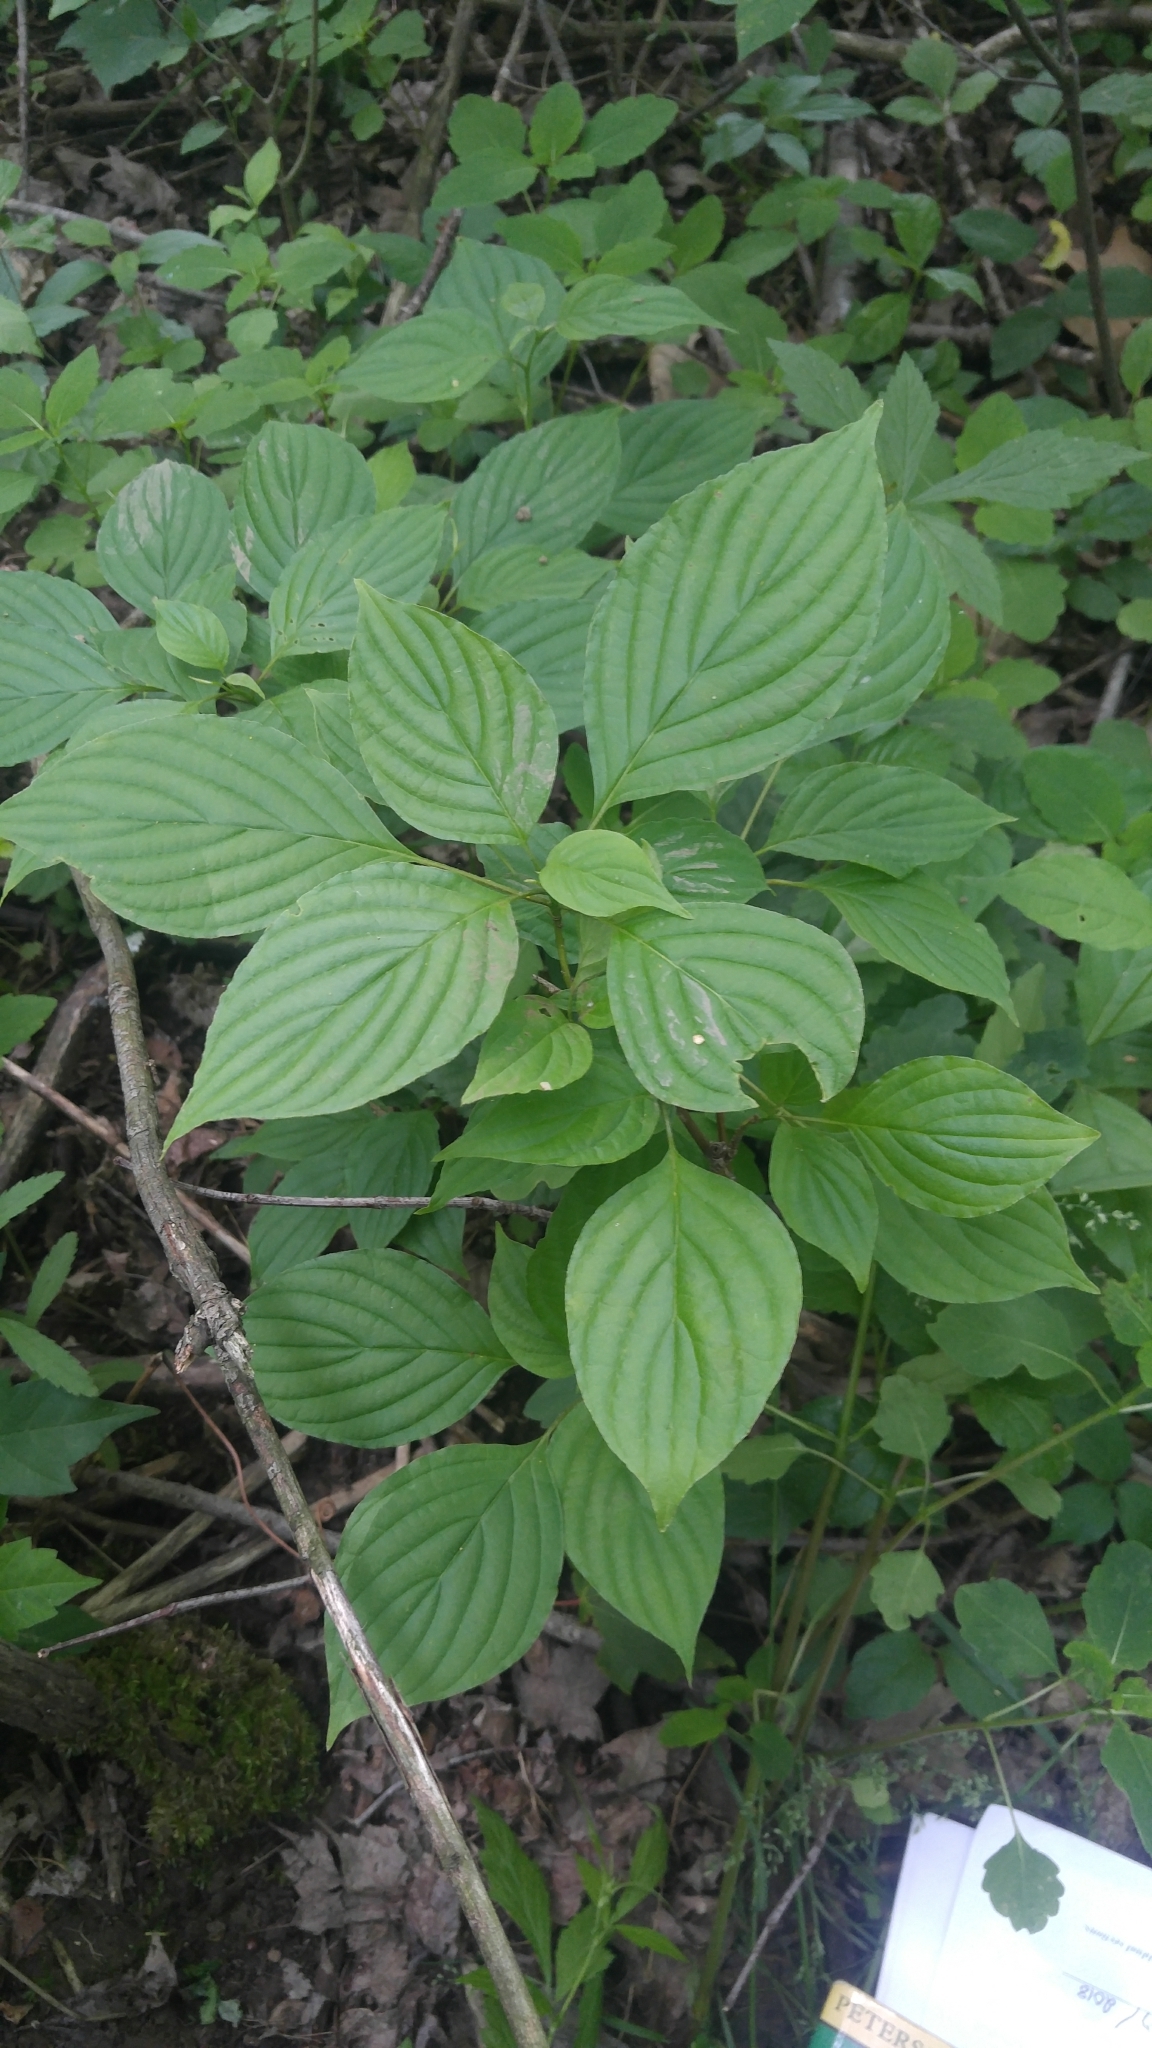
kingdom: Plantae
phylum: Tracheophyta
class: Magnoliopsida
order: Cornales
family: Cornaceae
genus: Cornus
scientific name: Cornus alternifolia
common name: Pagoda dogwood
